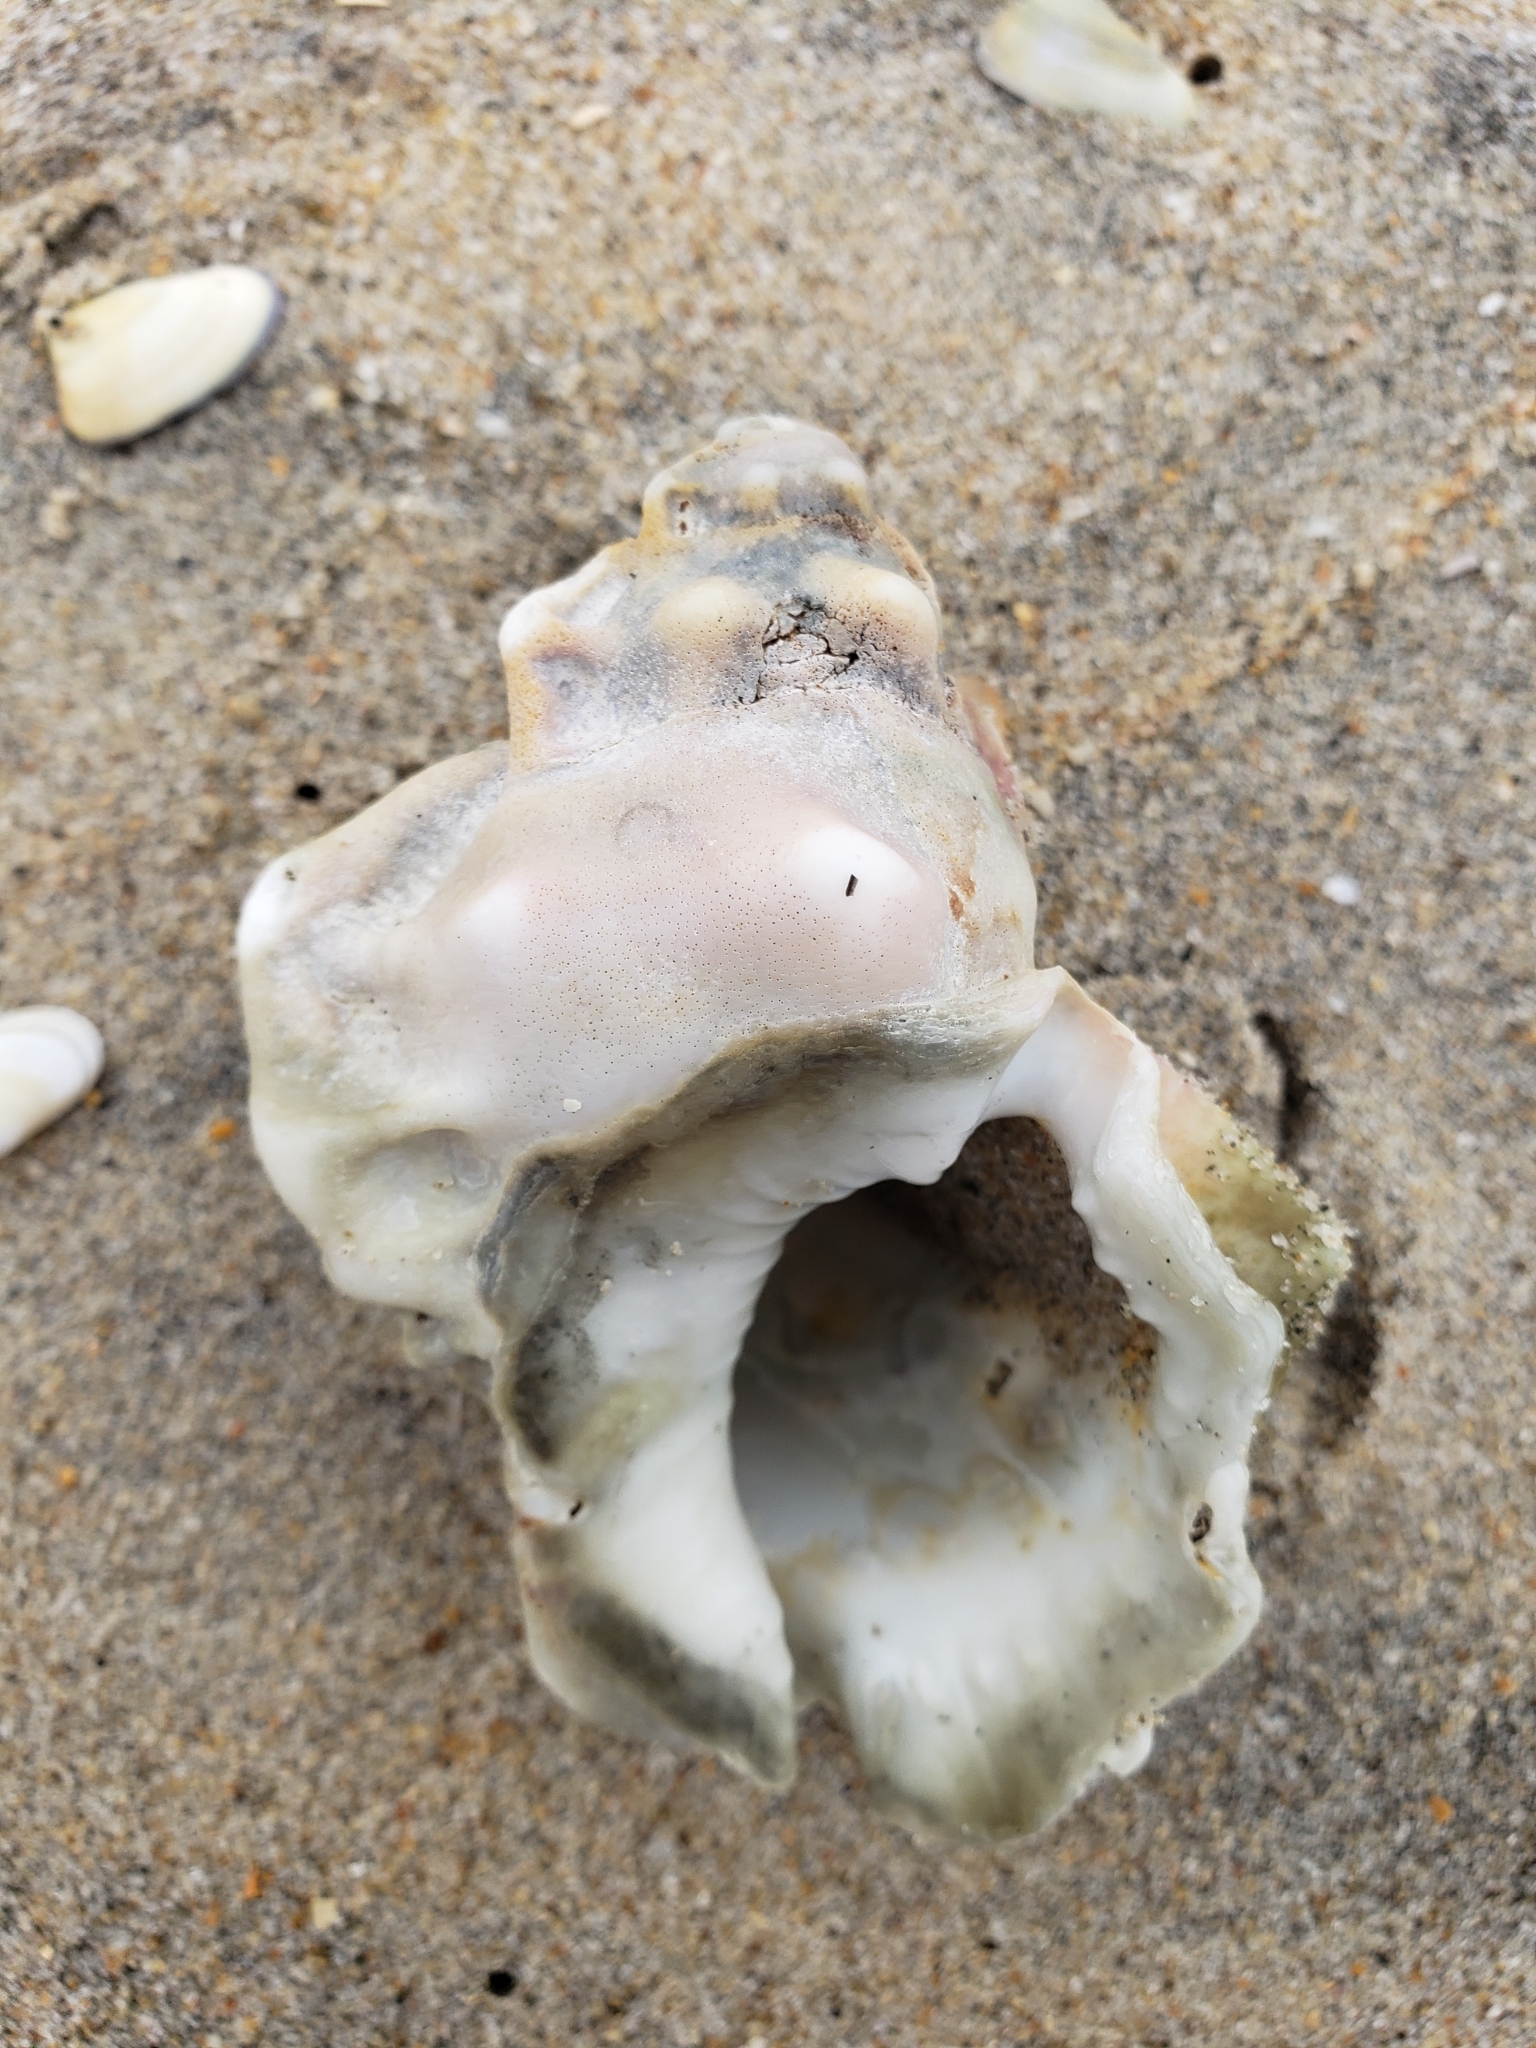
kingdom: Animalia
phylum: Mollusca
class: Gastropoda
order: Littorinimorpha
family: Bursidae
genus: Crossata
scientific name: Crossata californica
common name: California frogsnail
